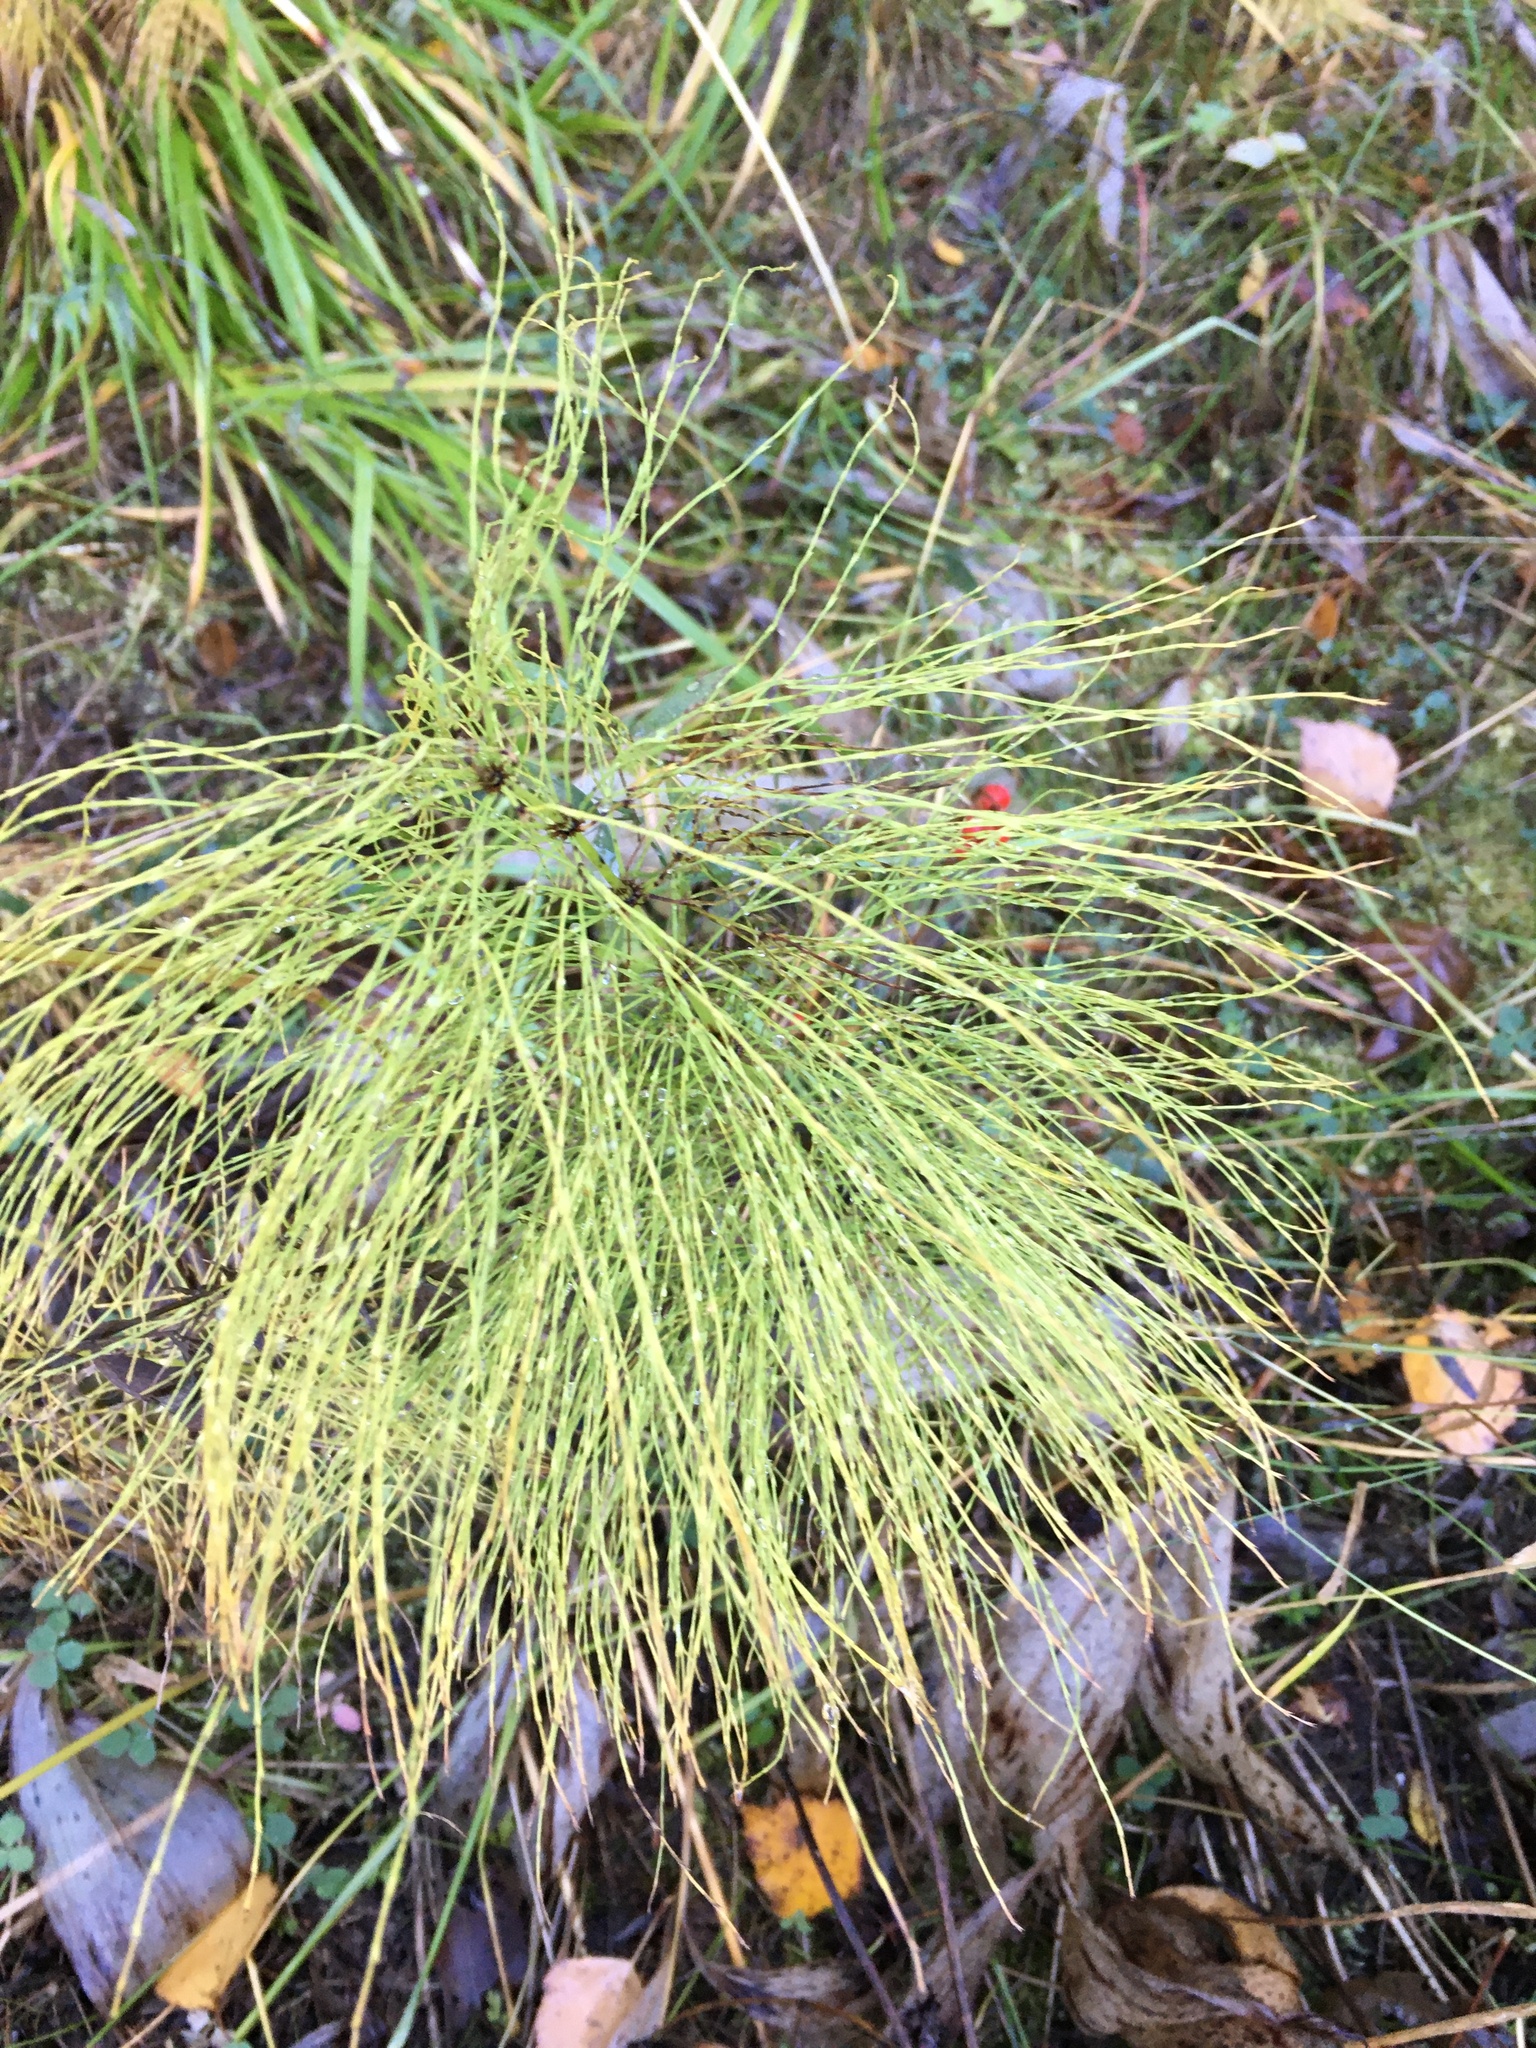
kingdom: Plantae
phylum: Tracheophyta
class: Polypodiopsida
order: Equisetales
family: Equisetaceae
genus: Equisetum
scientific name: Equisetum sylvaticum
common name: Wood horsetail
